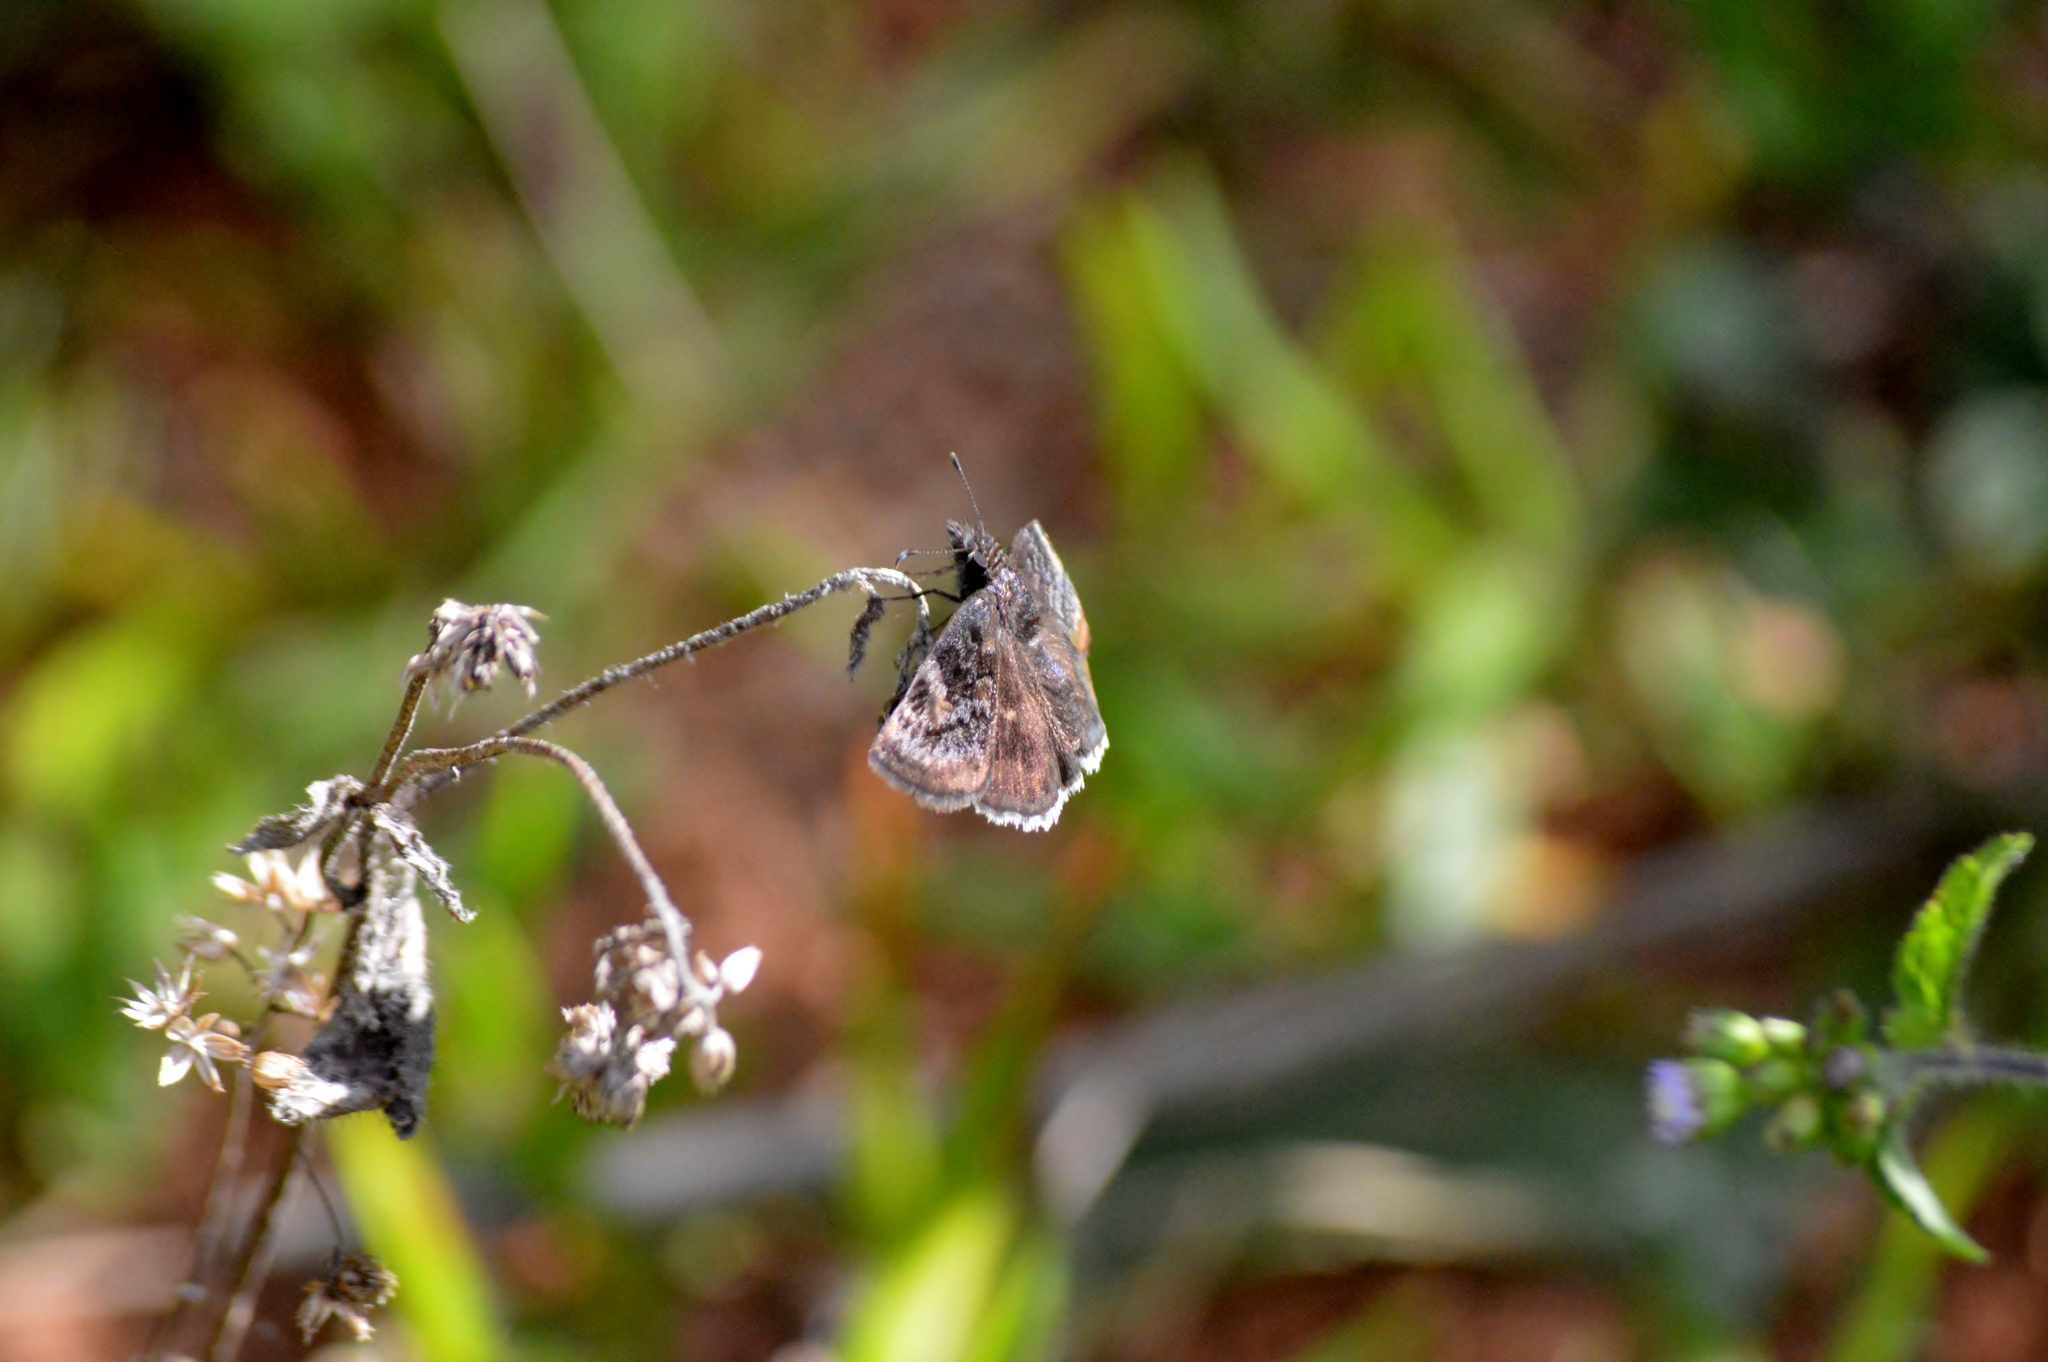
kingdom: Animalia
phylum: Arthropoda
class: Insecta
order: Lepidoptera
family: Hesperiidae
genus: Gesta
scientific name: Gesta gesta
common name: Gesta duskywing
